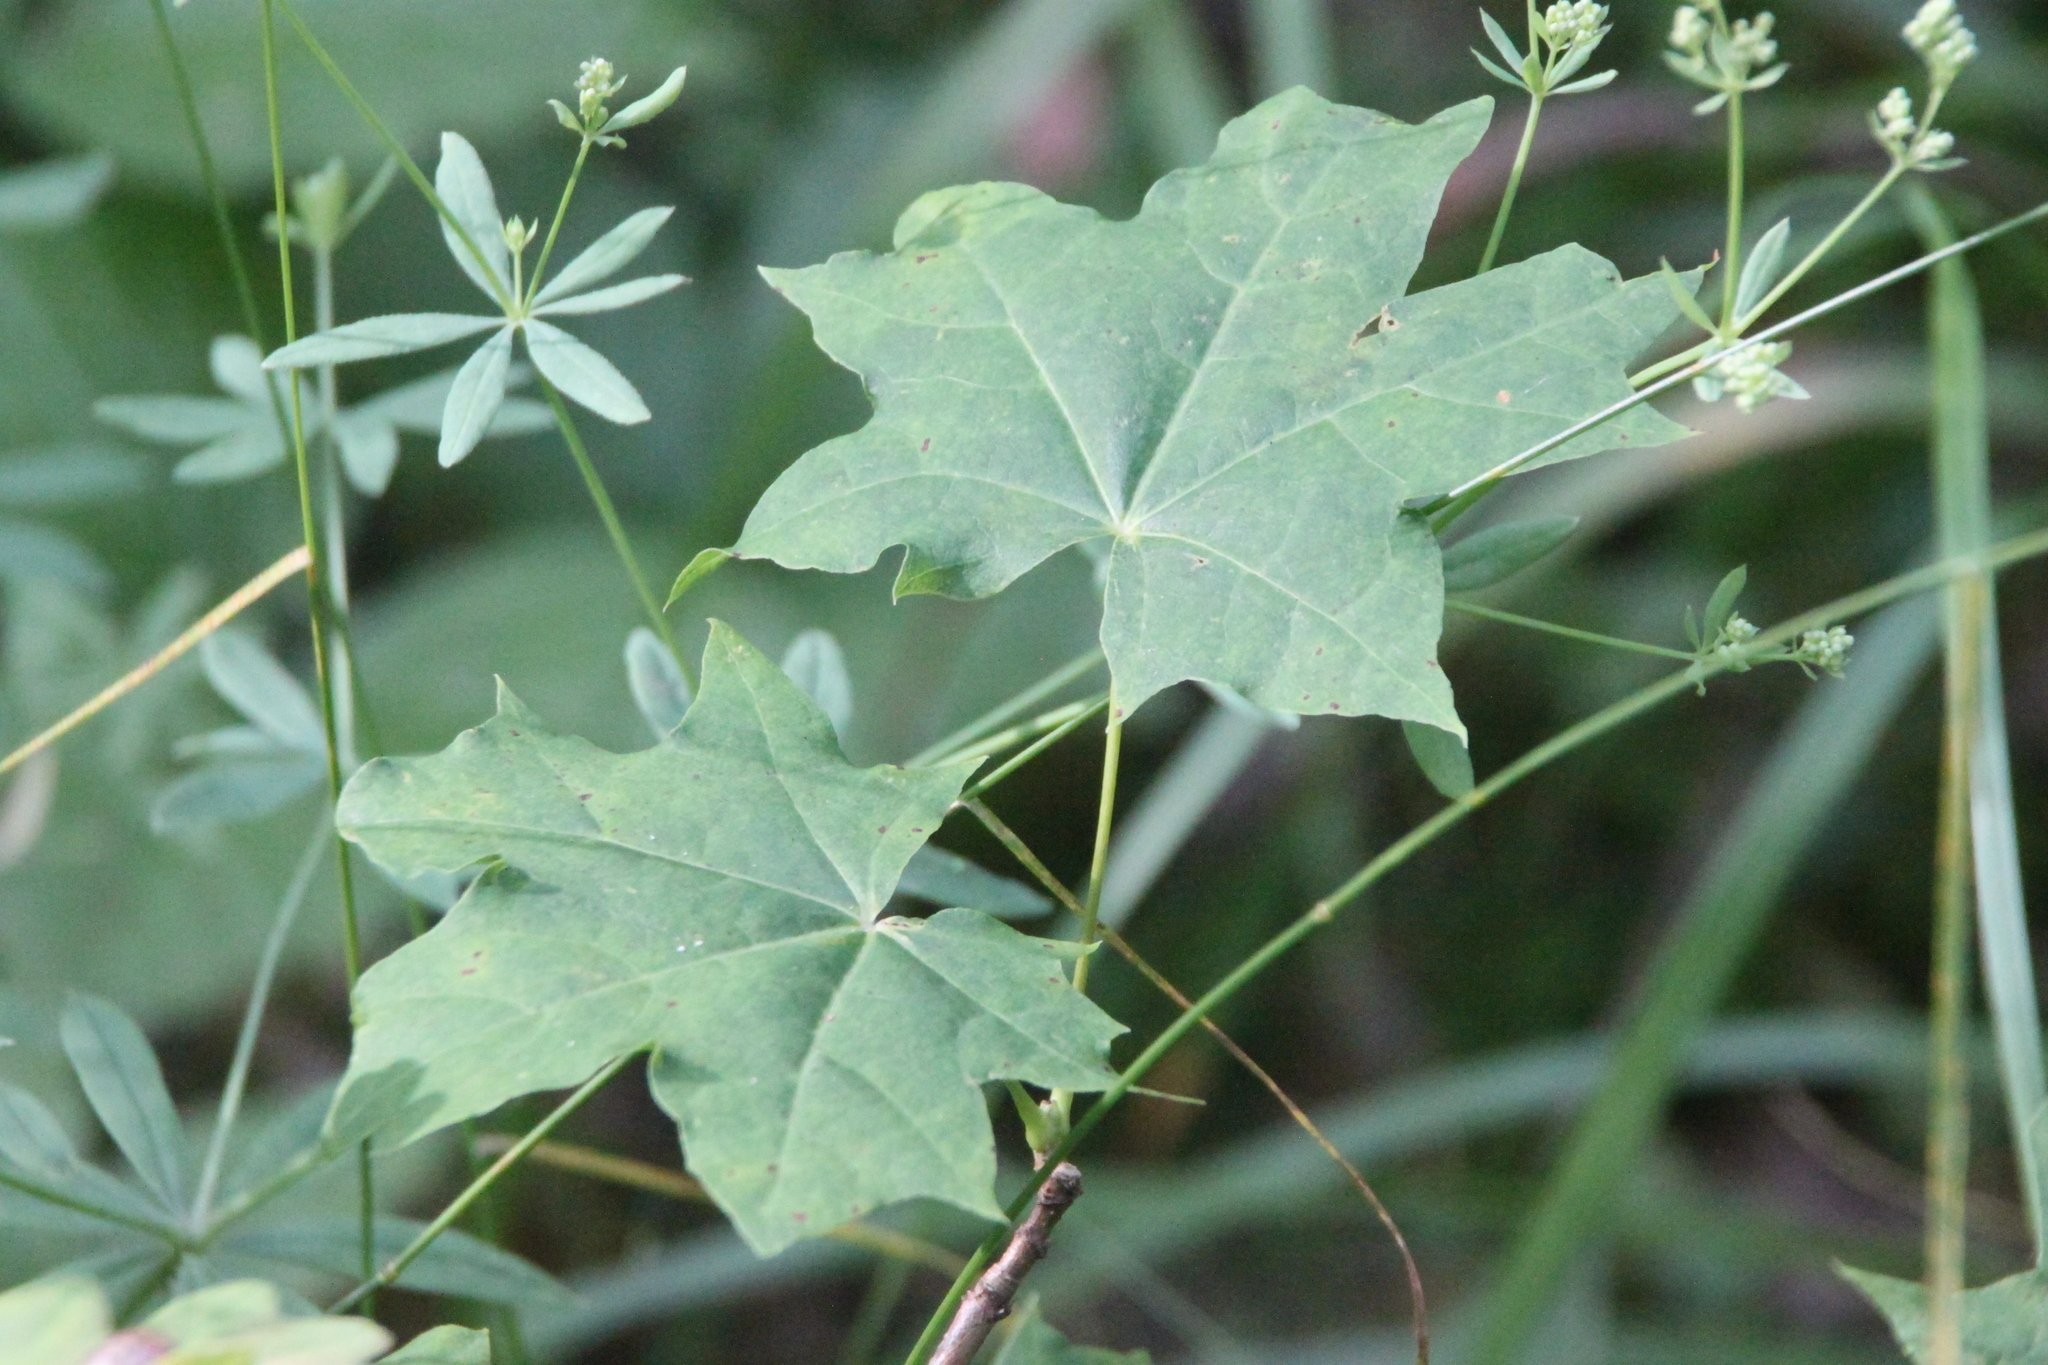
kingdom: Plantae
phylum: Tracheophyta
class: Magnoliopsida
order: Sapindales
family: Sapindaceae
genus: Acer
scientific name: Acer platanoides
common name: Norway maple
